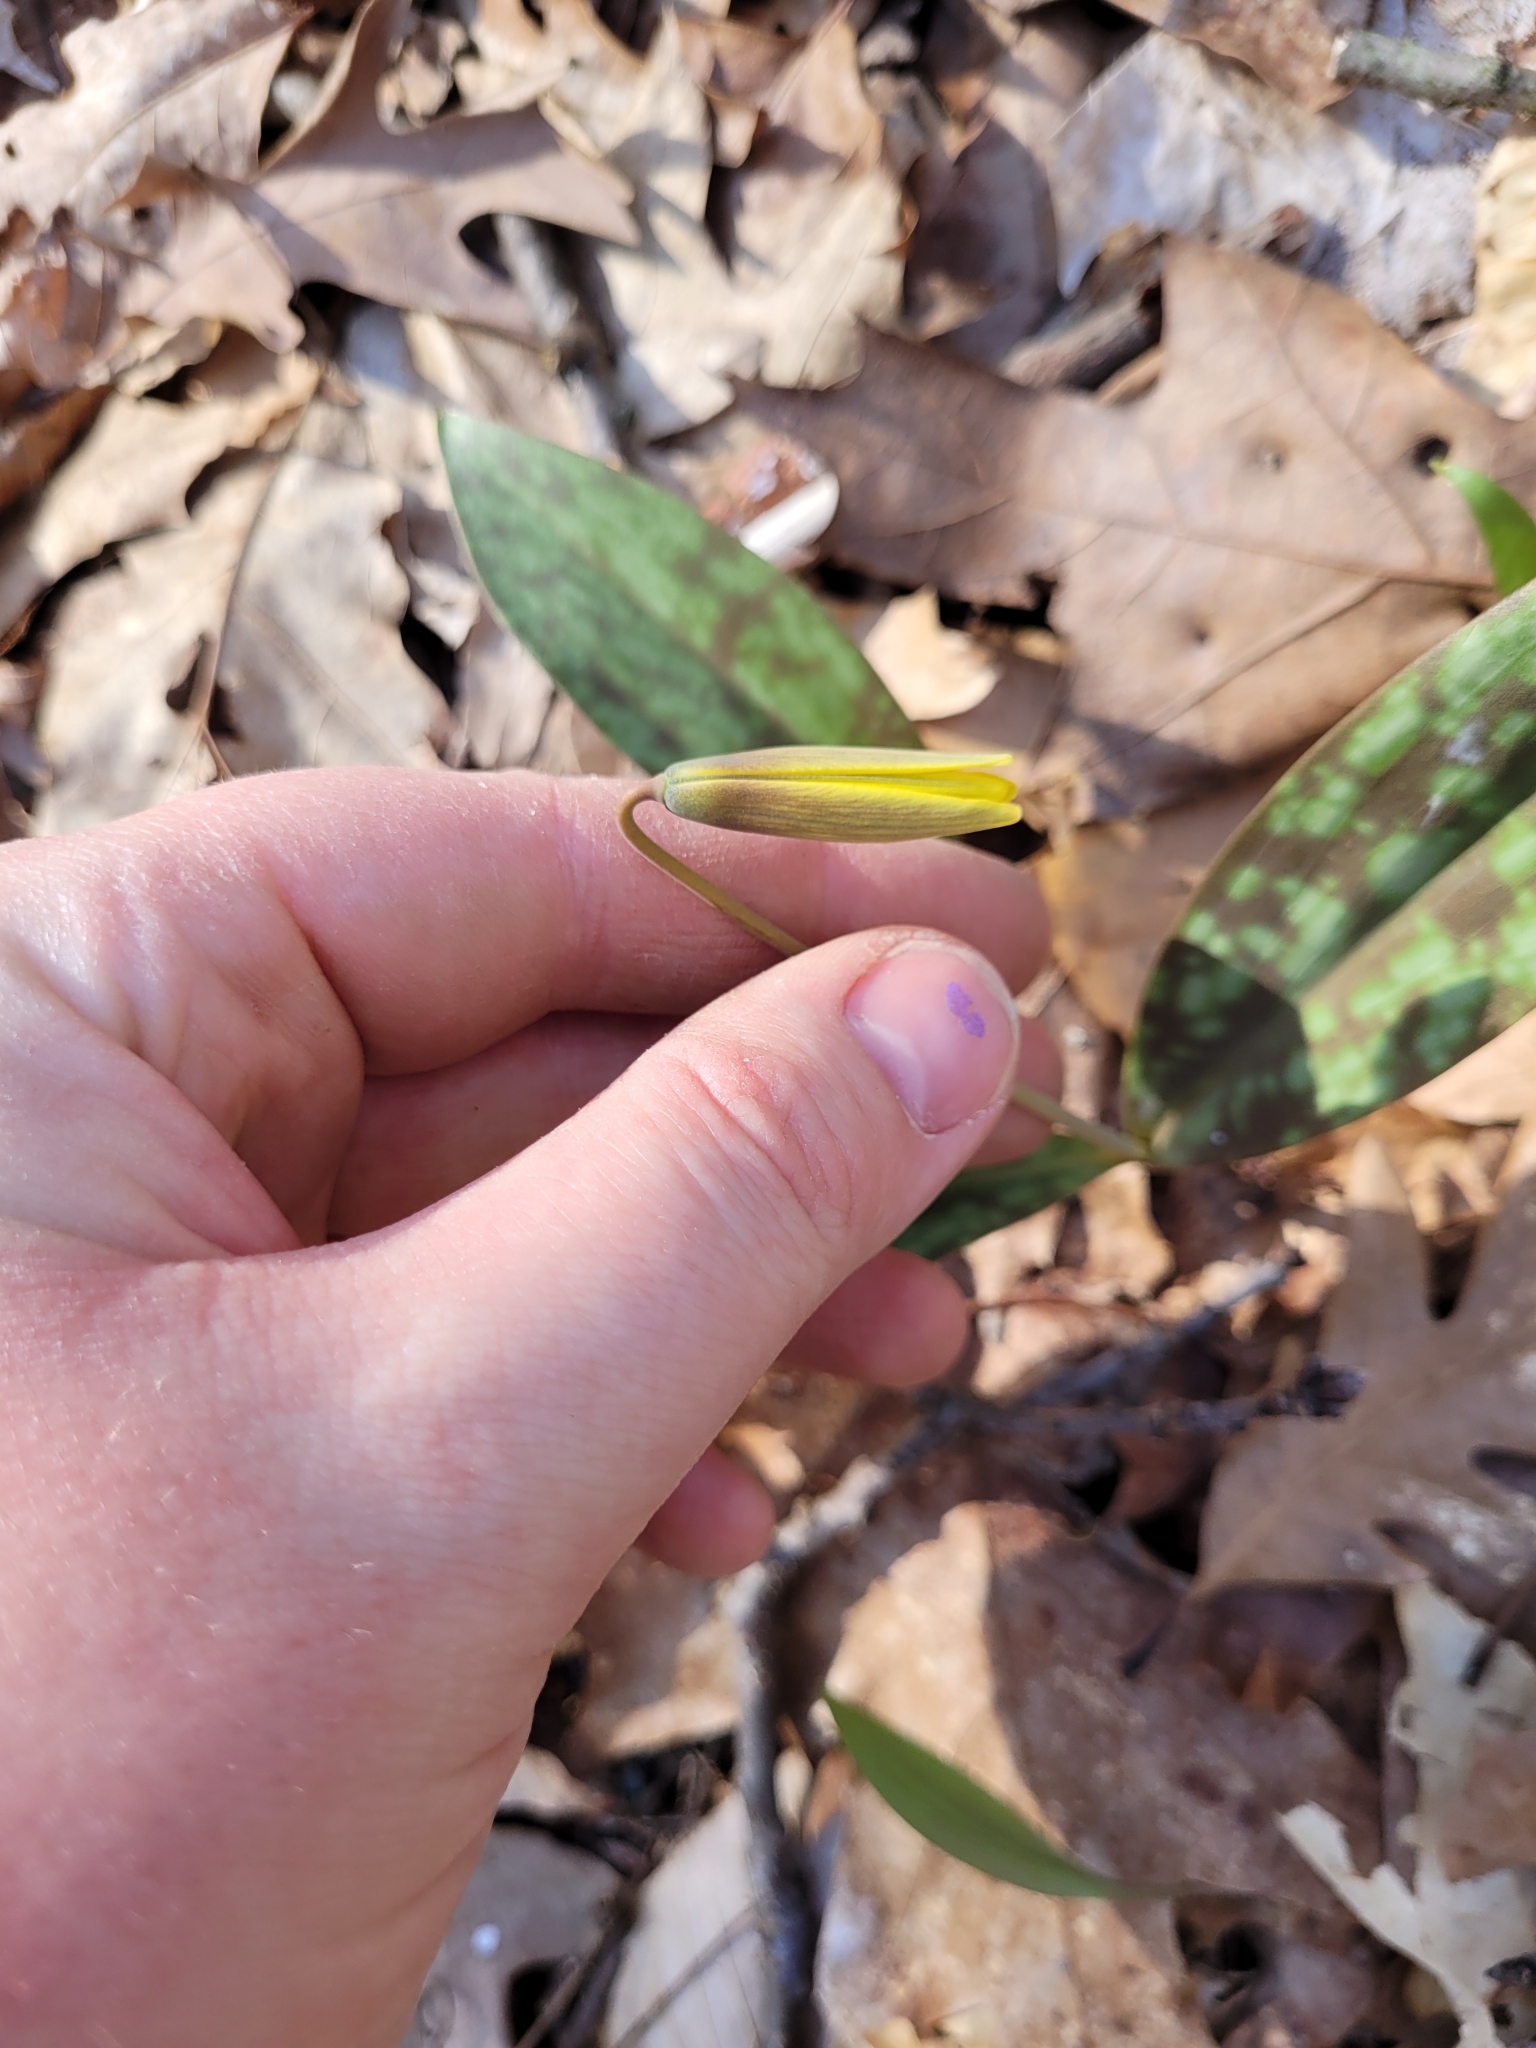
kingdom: Plantae
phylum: Tracheophyta
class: Liliopsida
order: Liliales
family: Liliaceae
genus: Erythronium
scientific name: Erythronium americanum
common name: Yellow adder's-tongue
